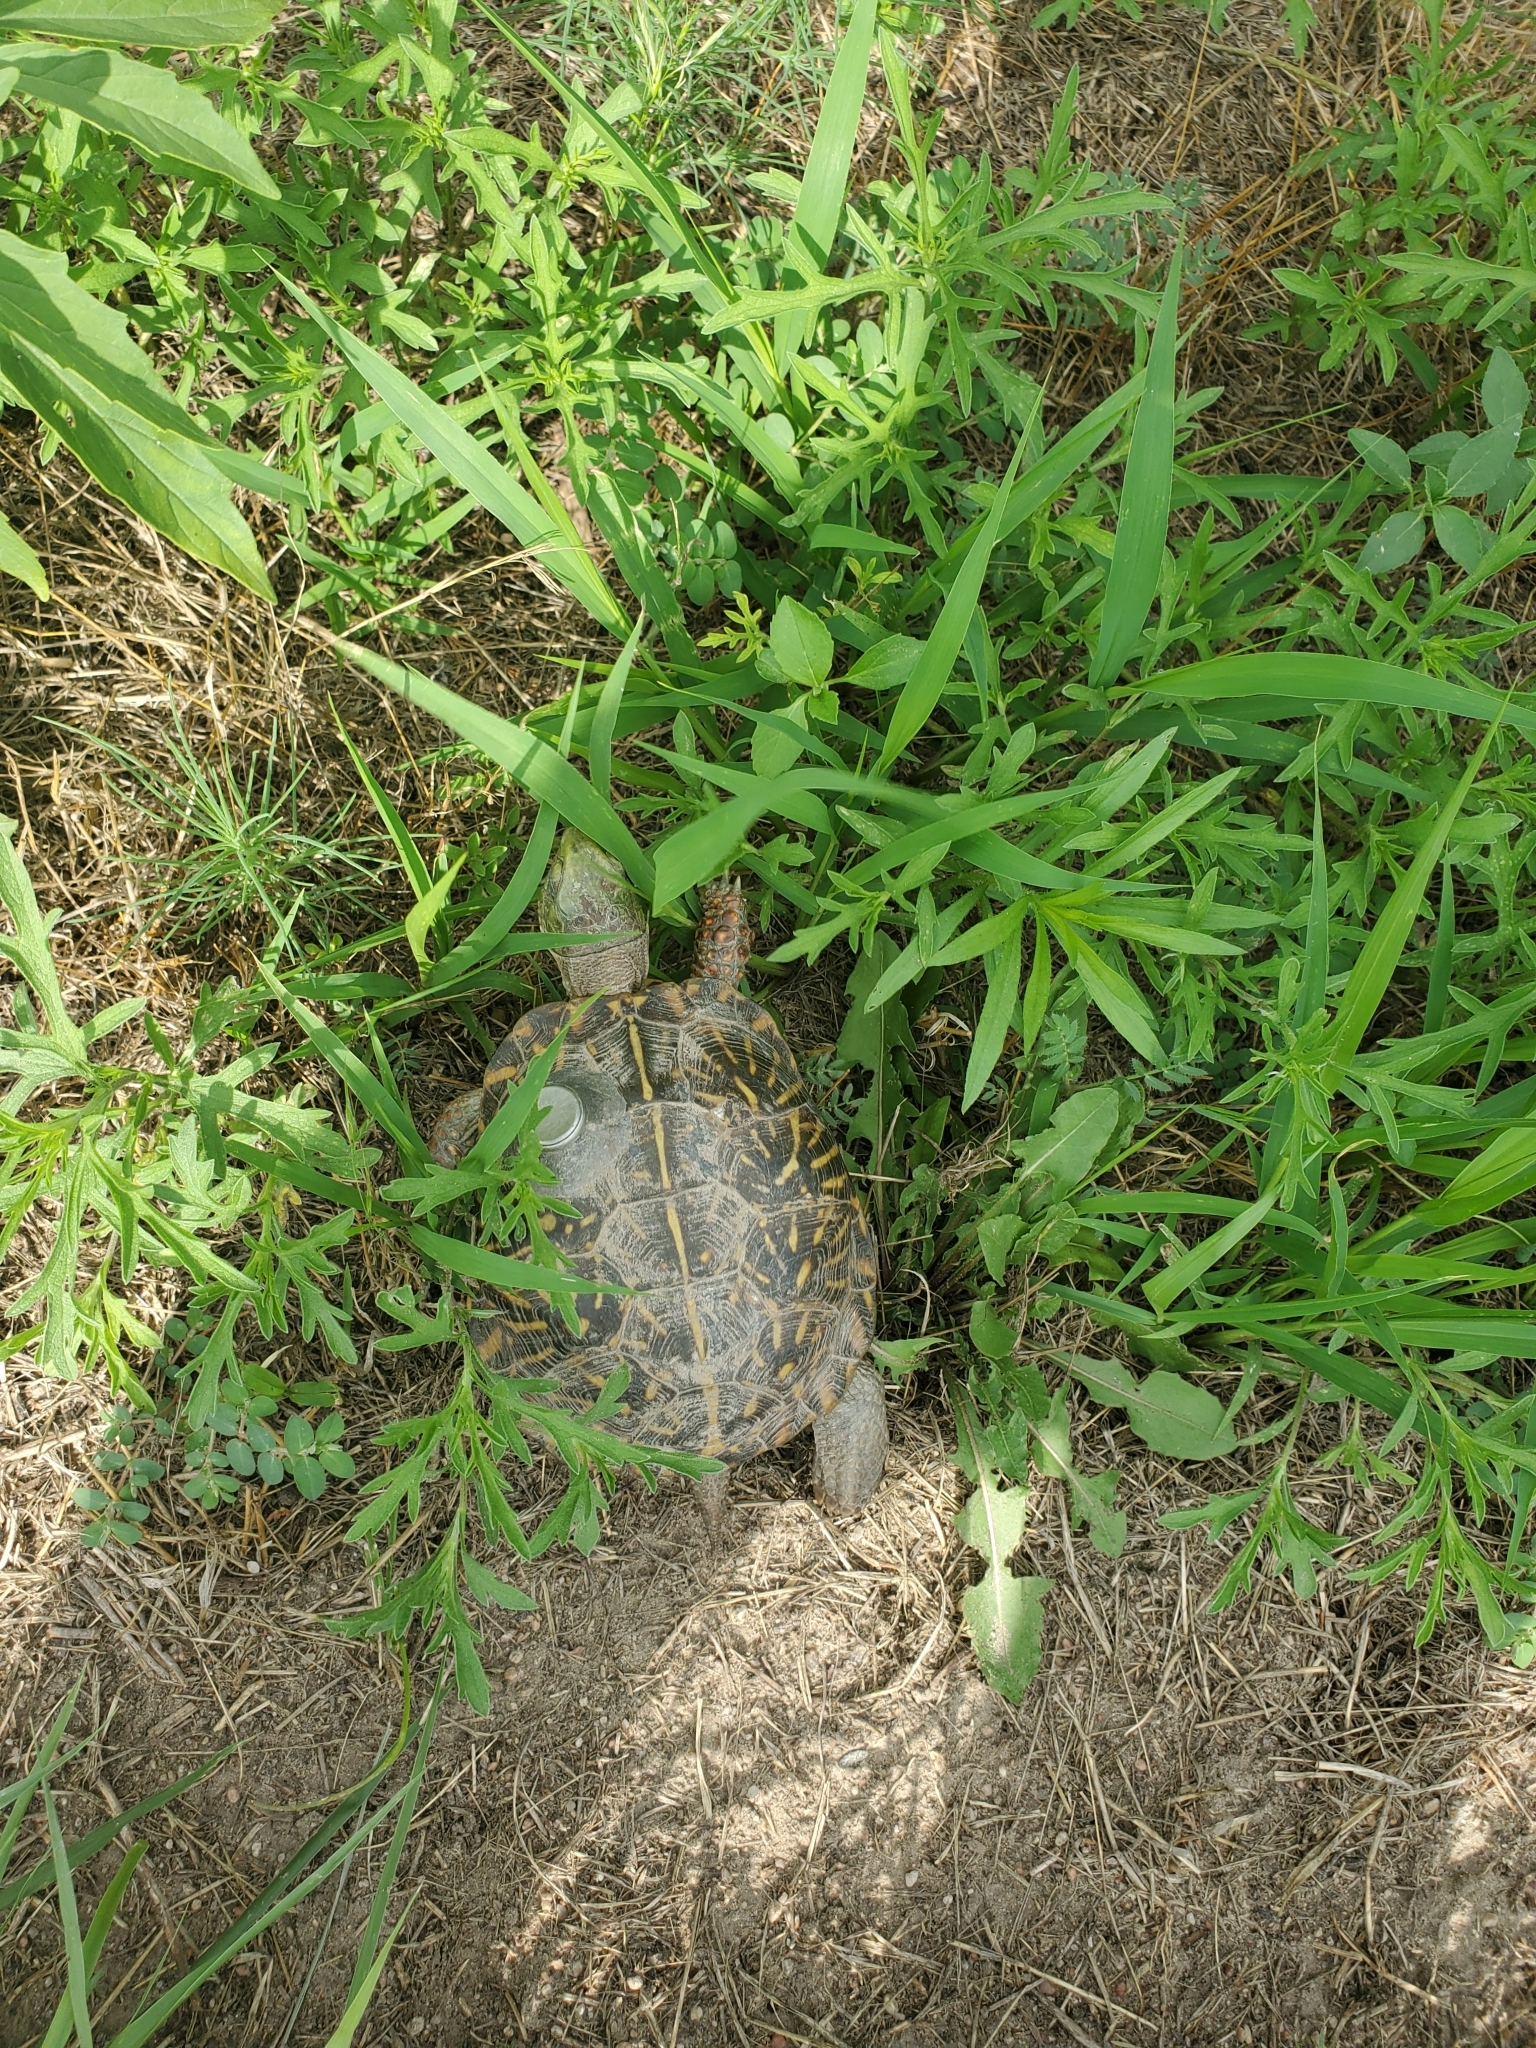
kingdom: Animalia
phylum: Chordata
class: Testudines
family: Emydidae
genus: Terrapene
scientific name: Terrapene ornata
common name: Western box turtle
